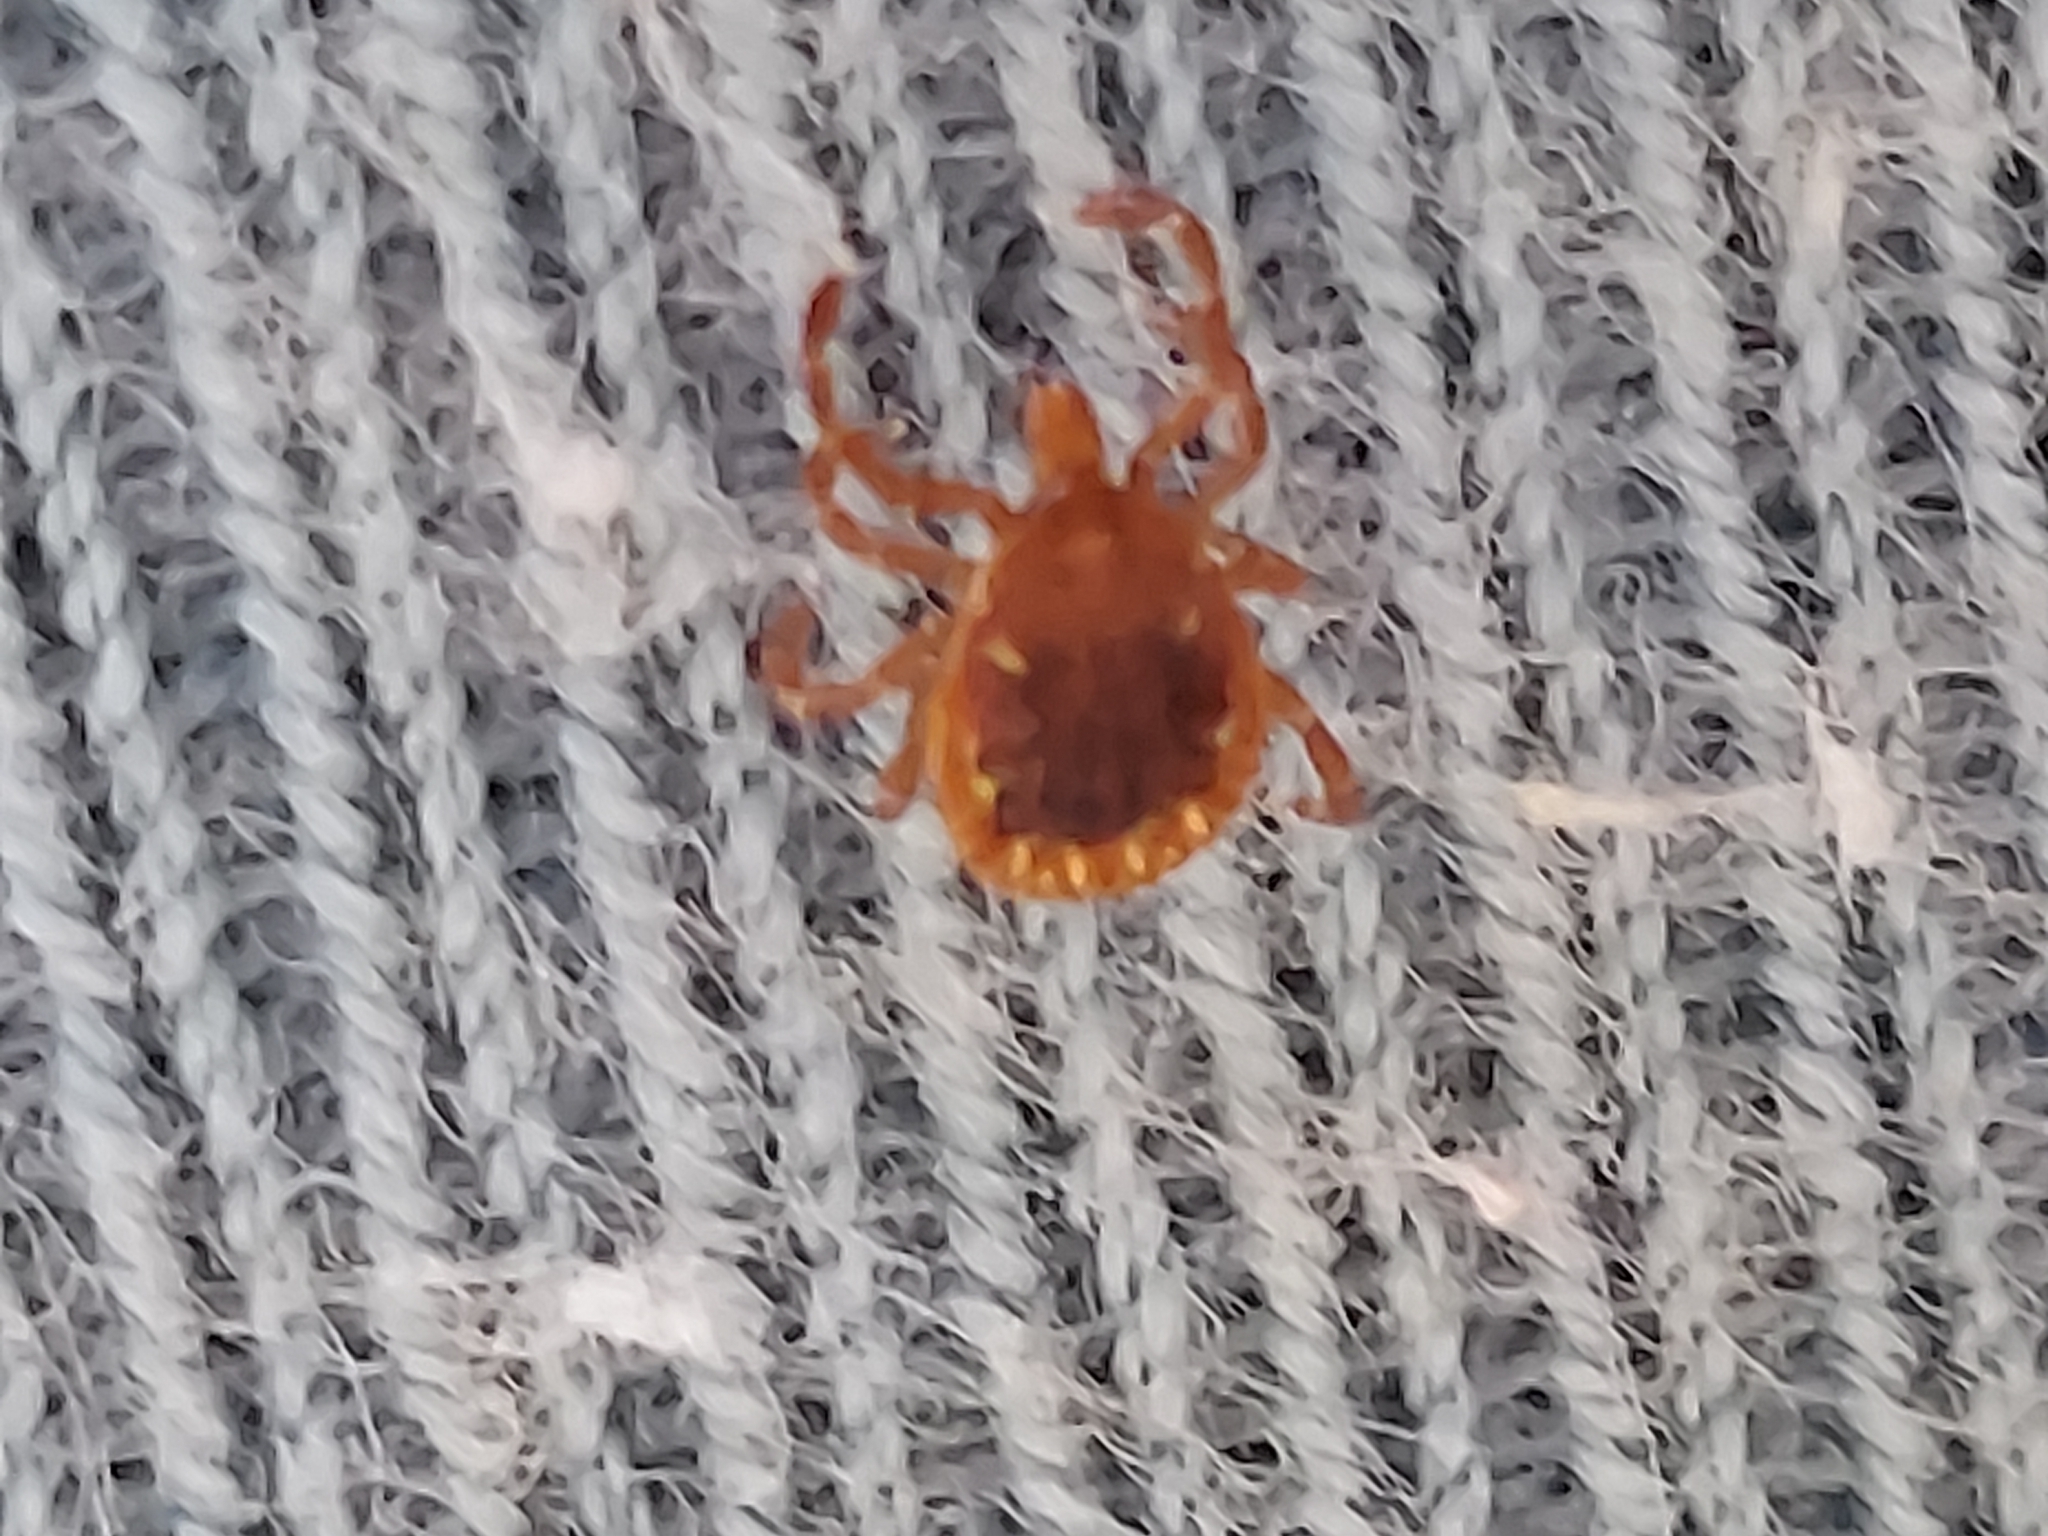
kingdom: Animalia
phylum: Arthropoda
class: Arachnida
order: Ixodida
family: Ixodidae
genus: Amblyomma
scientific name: Amblyomma americanum
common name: Lone star tick
